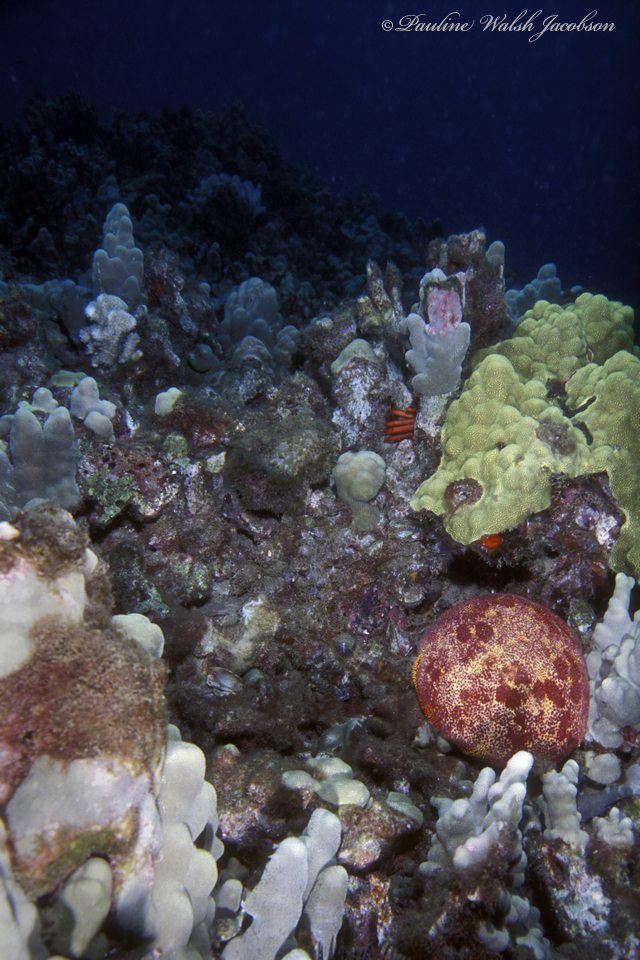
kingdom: Animalia
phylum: Echinodermata
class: Asteroidea
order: Valvatida
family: Oreasteridae
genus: Culcita
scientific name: Culcita novaeguineae
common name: Cushion star
